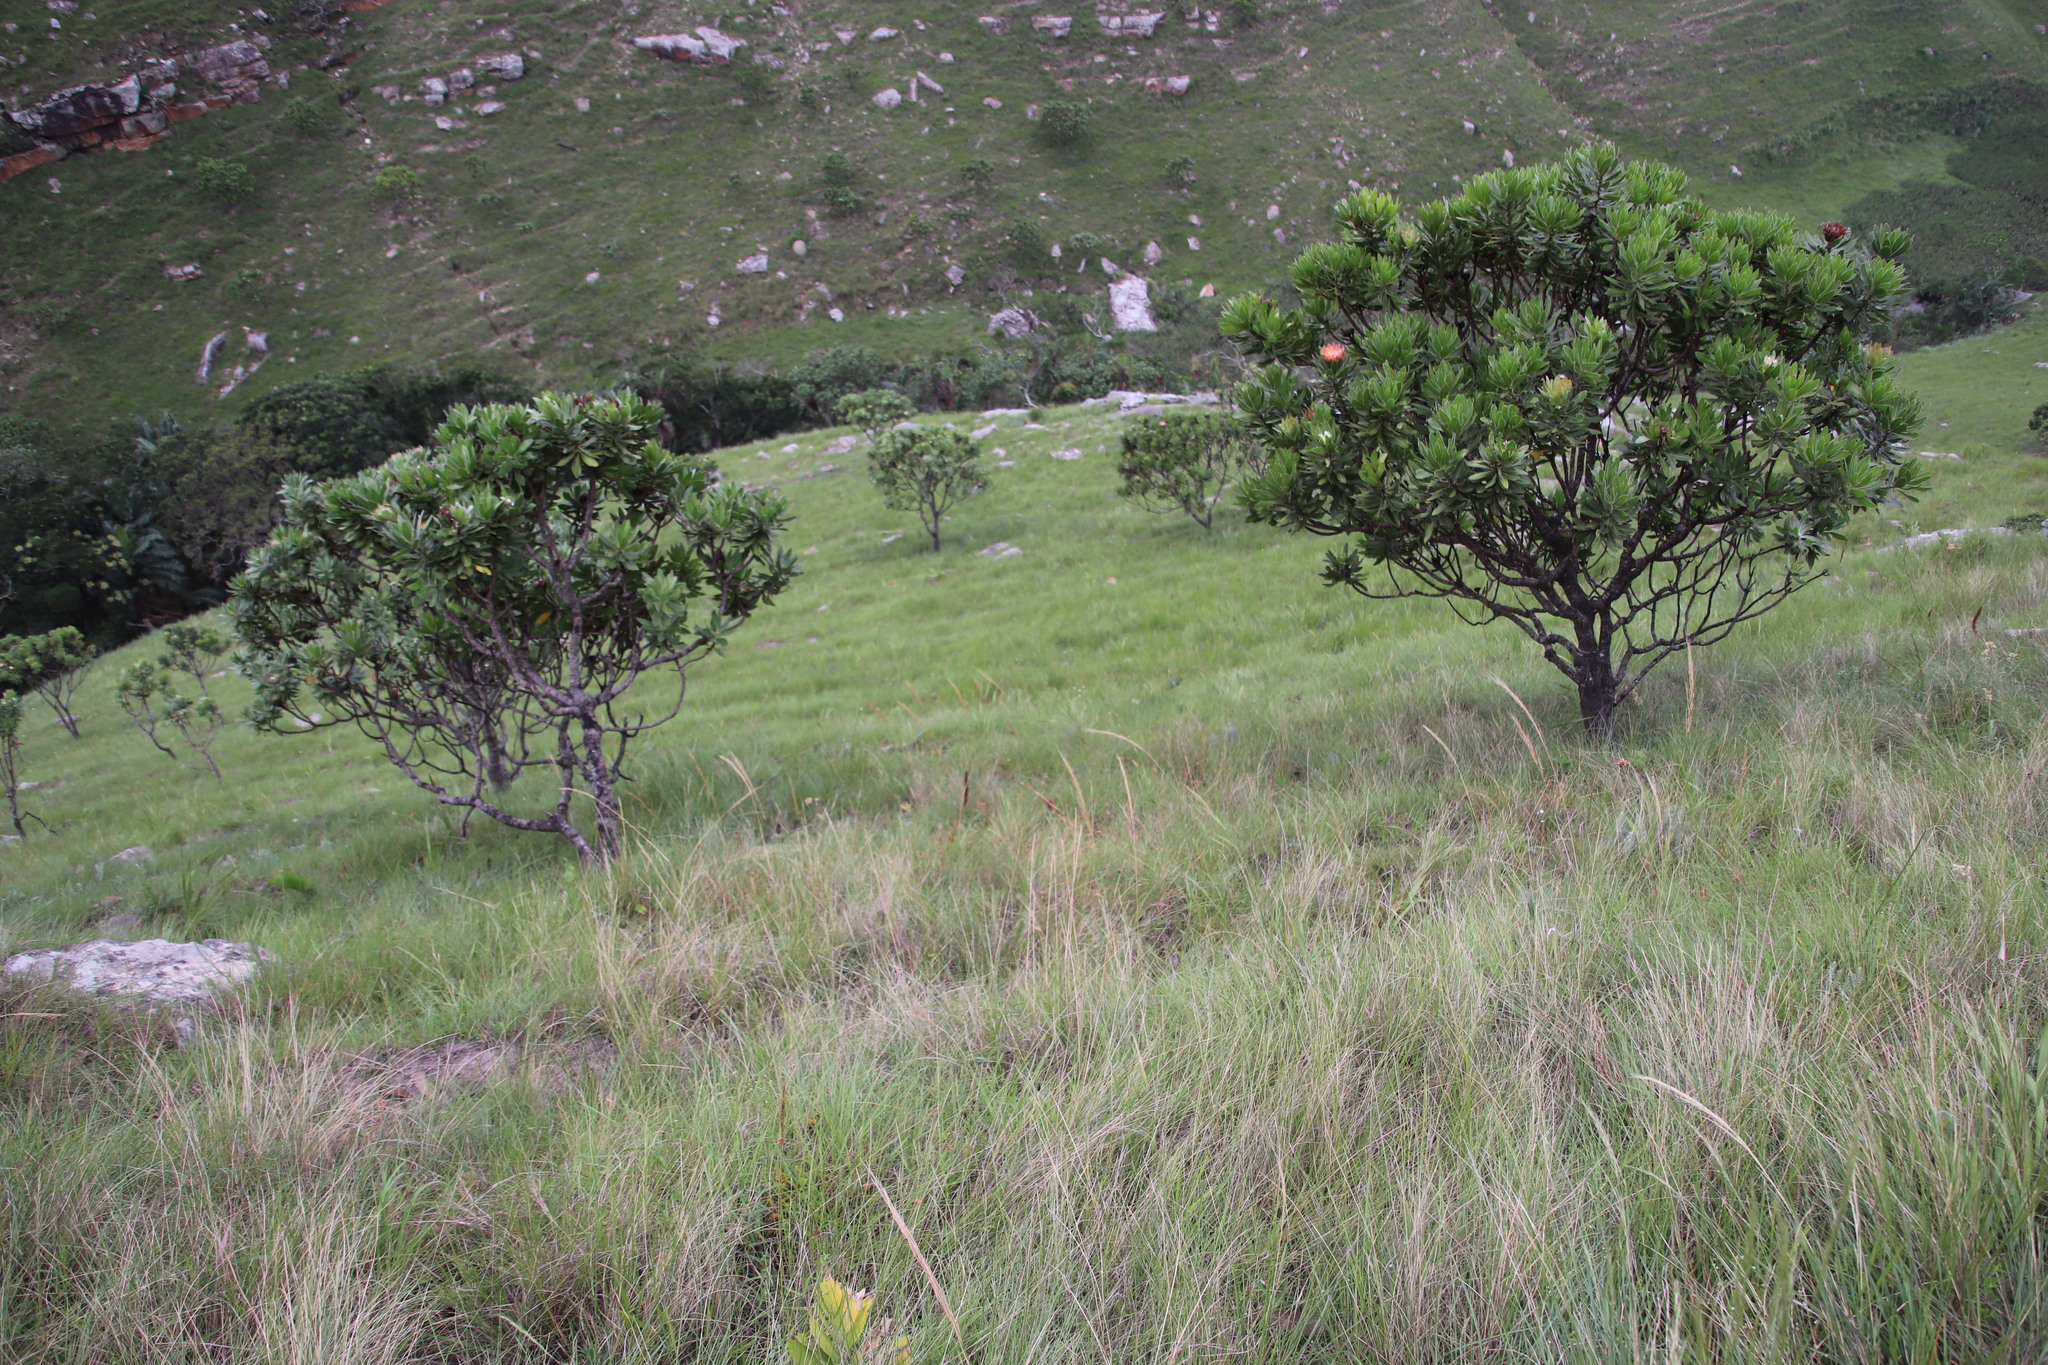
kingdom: Plantae
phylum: Tracheophyta
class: Magnoliopsida
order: Proteales
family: Proteaceae
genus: Protea
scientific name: Protea roupelliae
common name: Silver sugarbush
